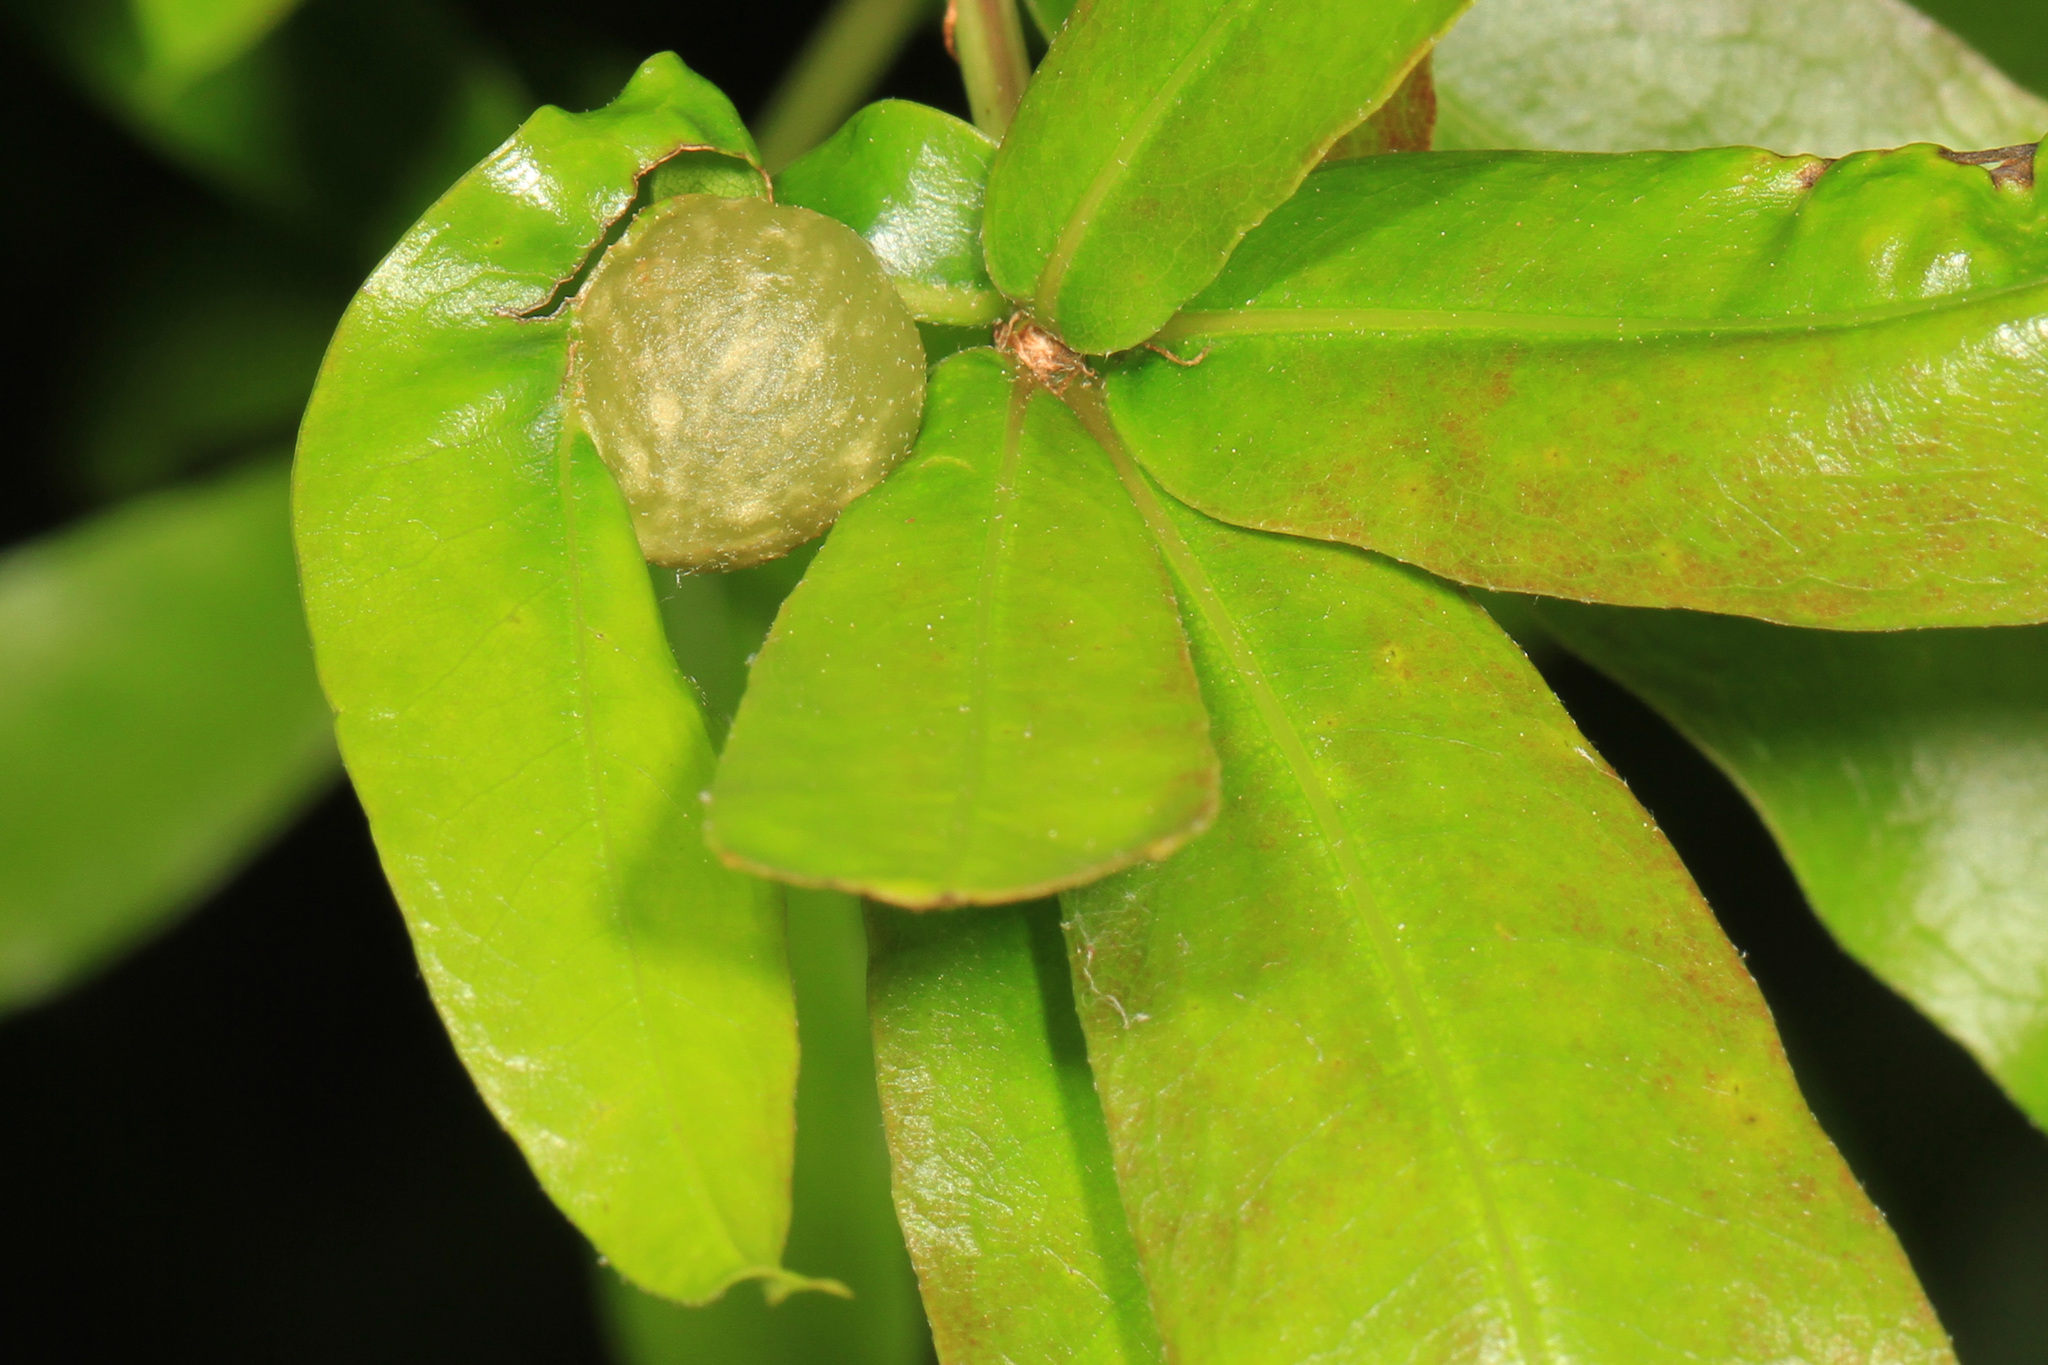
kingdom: Animalia
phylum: Arthropoda
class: Insecta
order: Hymenoptera
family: Cynipidae
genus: Dryocosmus
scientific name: Dryocosmus
